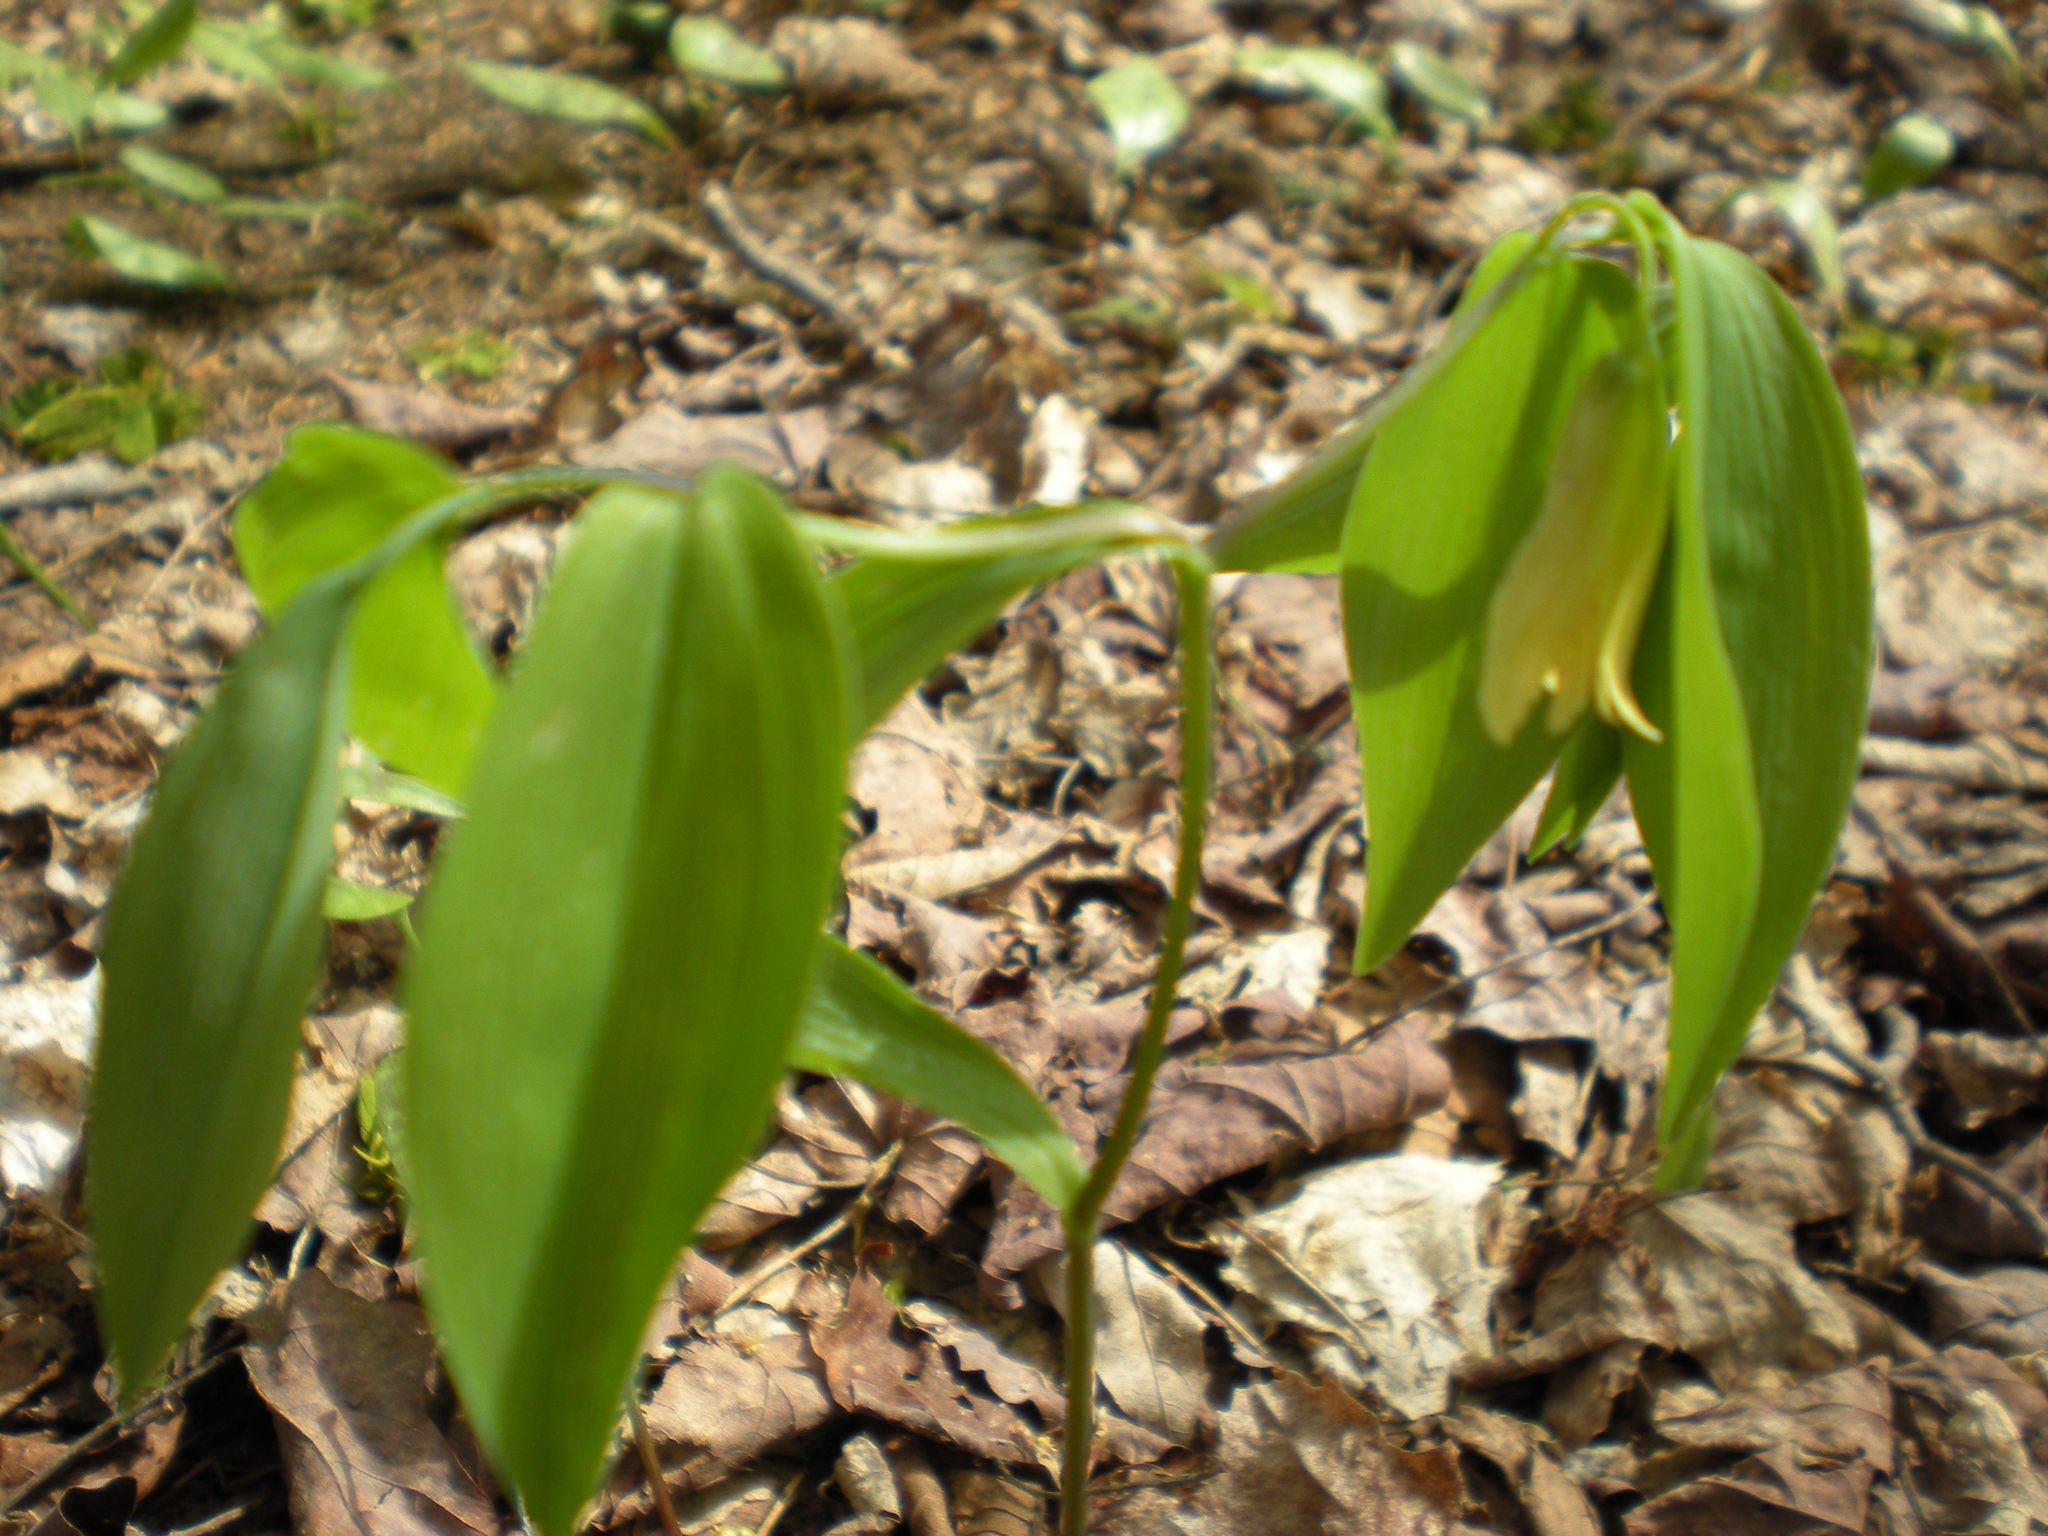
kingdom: Plantae
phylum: Tracheophyta
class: Liliopsida
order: Liliales
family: Colchicaceae
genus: Uvularia
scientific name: Uvularia sessilifolia
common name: Straw-lily
